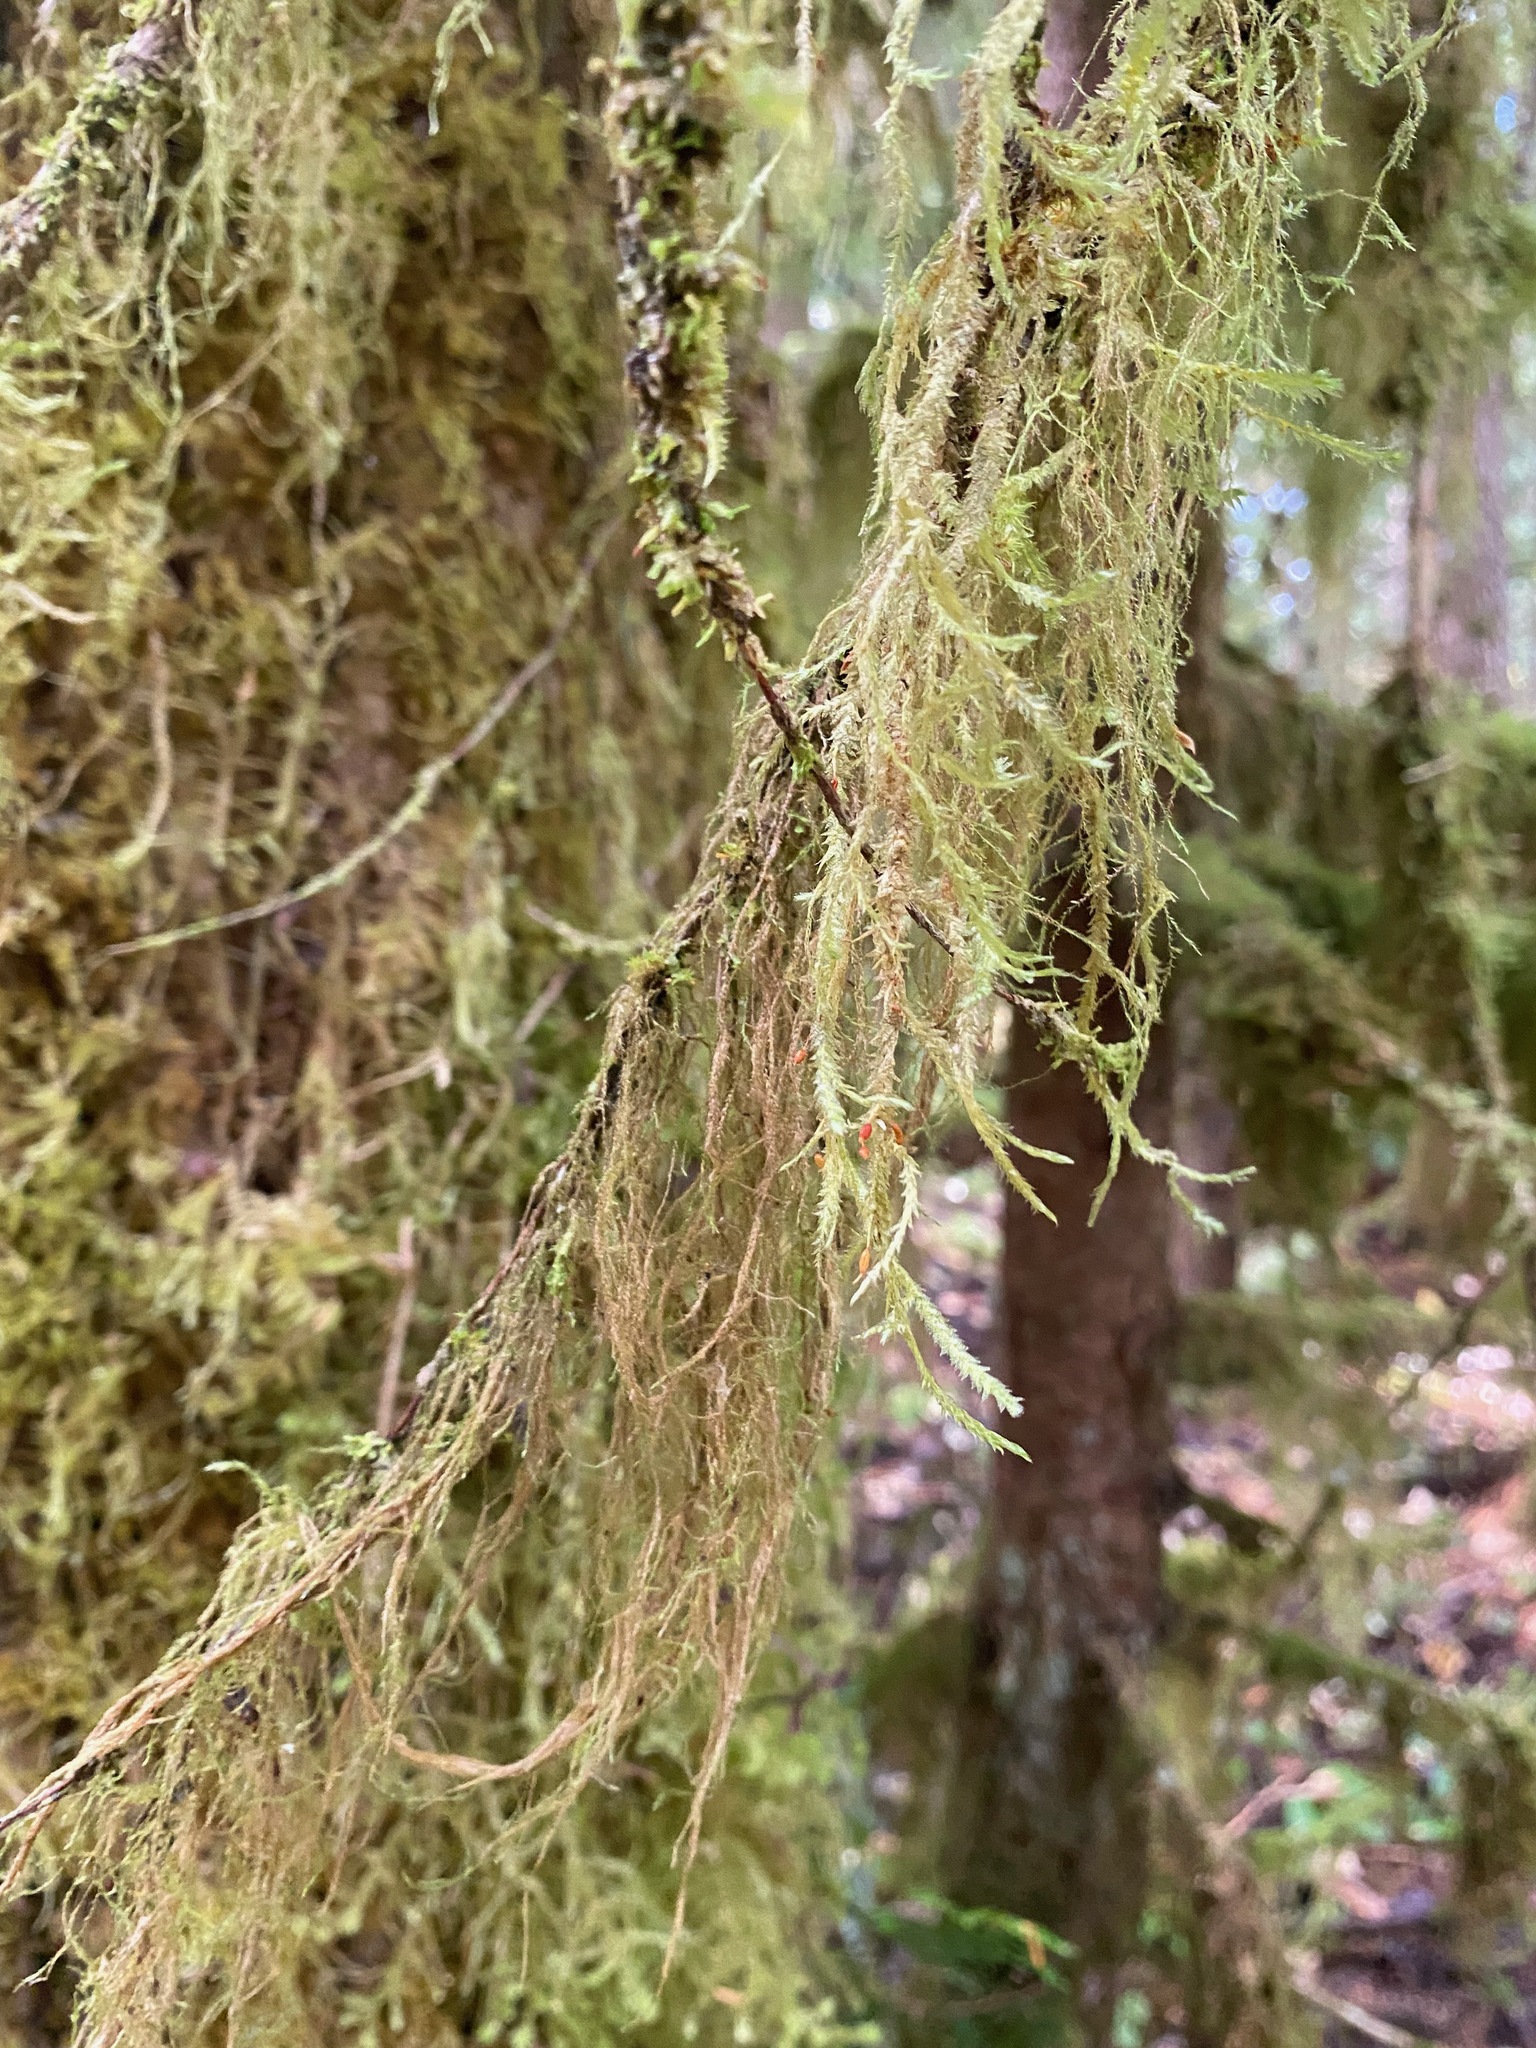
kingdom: Plantae
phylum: Bryophyta
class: Bryopsida
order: Hypnales
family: Lembophyllaceae
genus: Pseudisothecium
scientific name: Pseudisothecium stoloniferum
